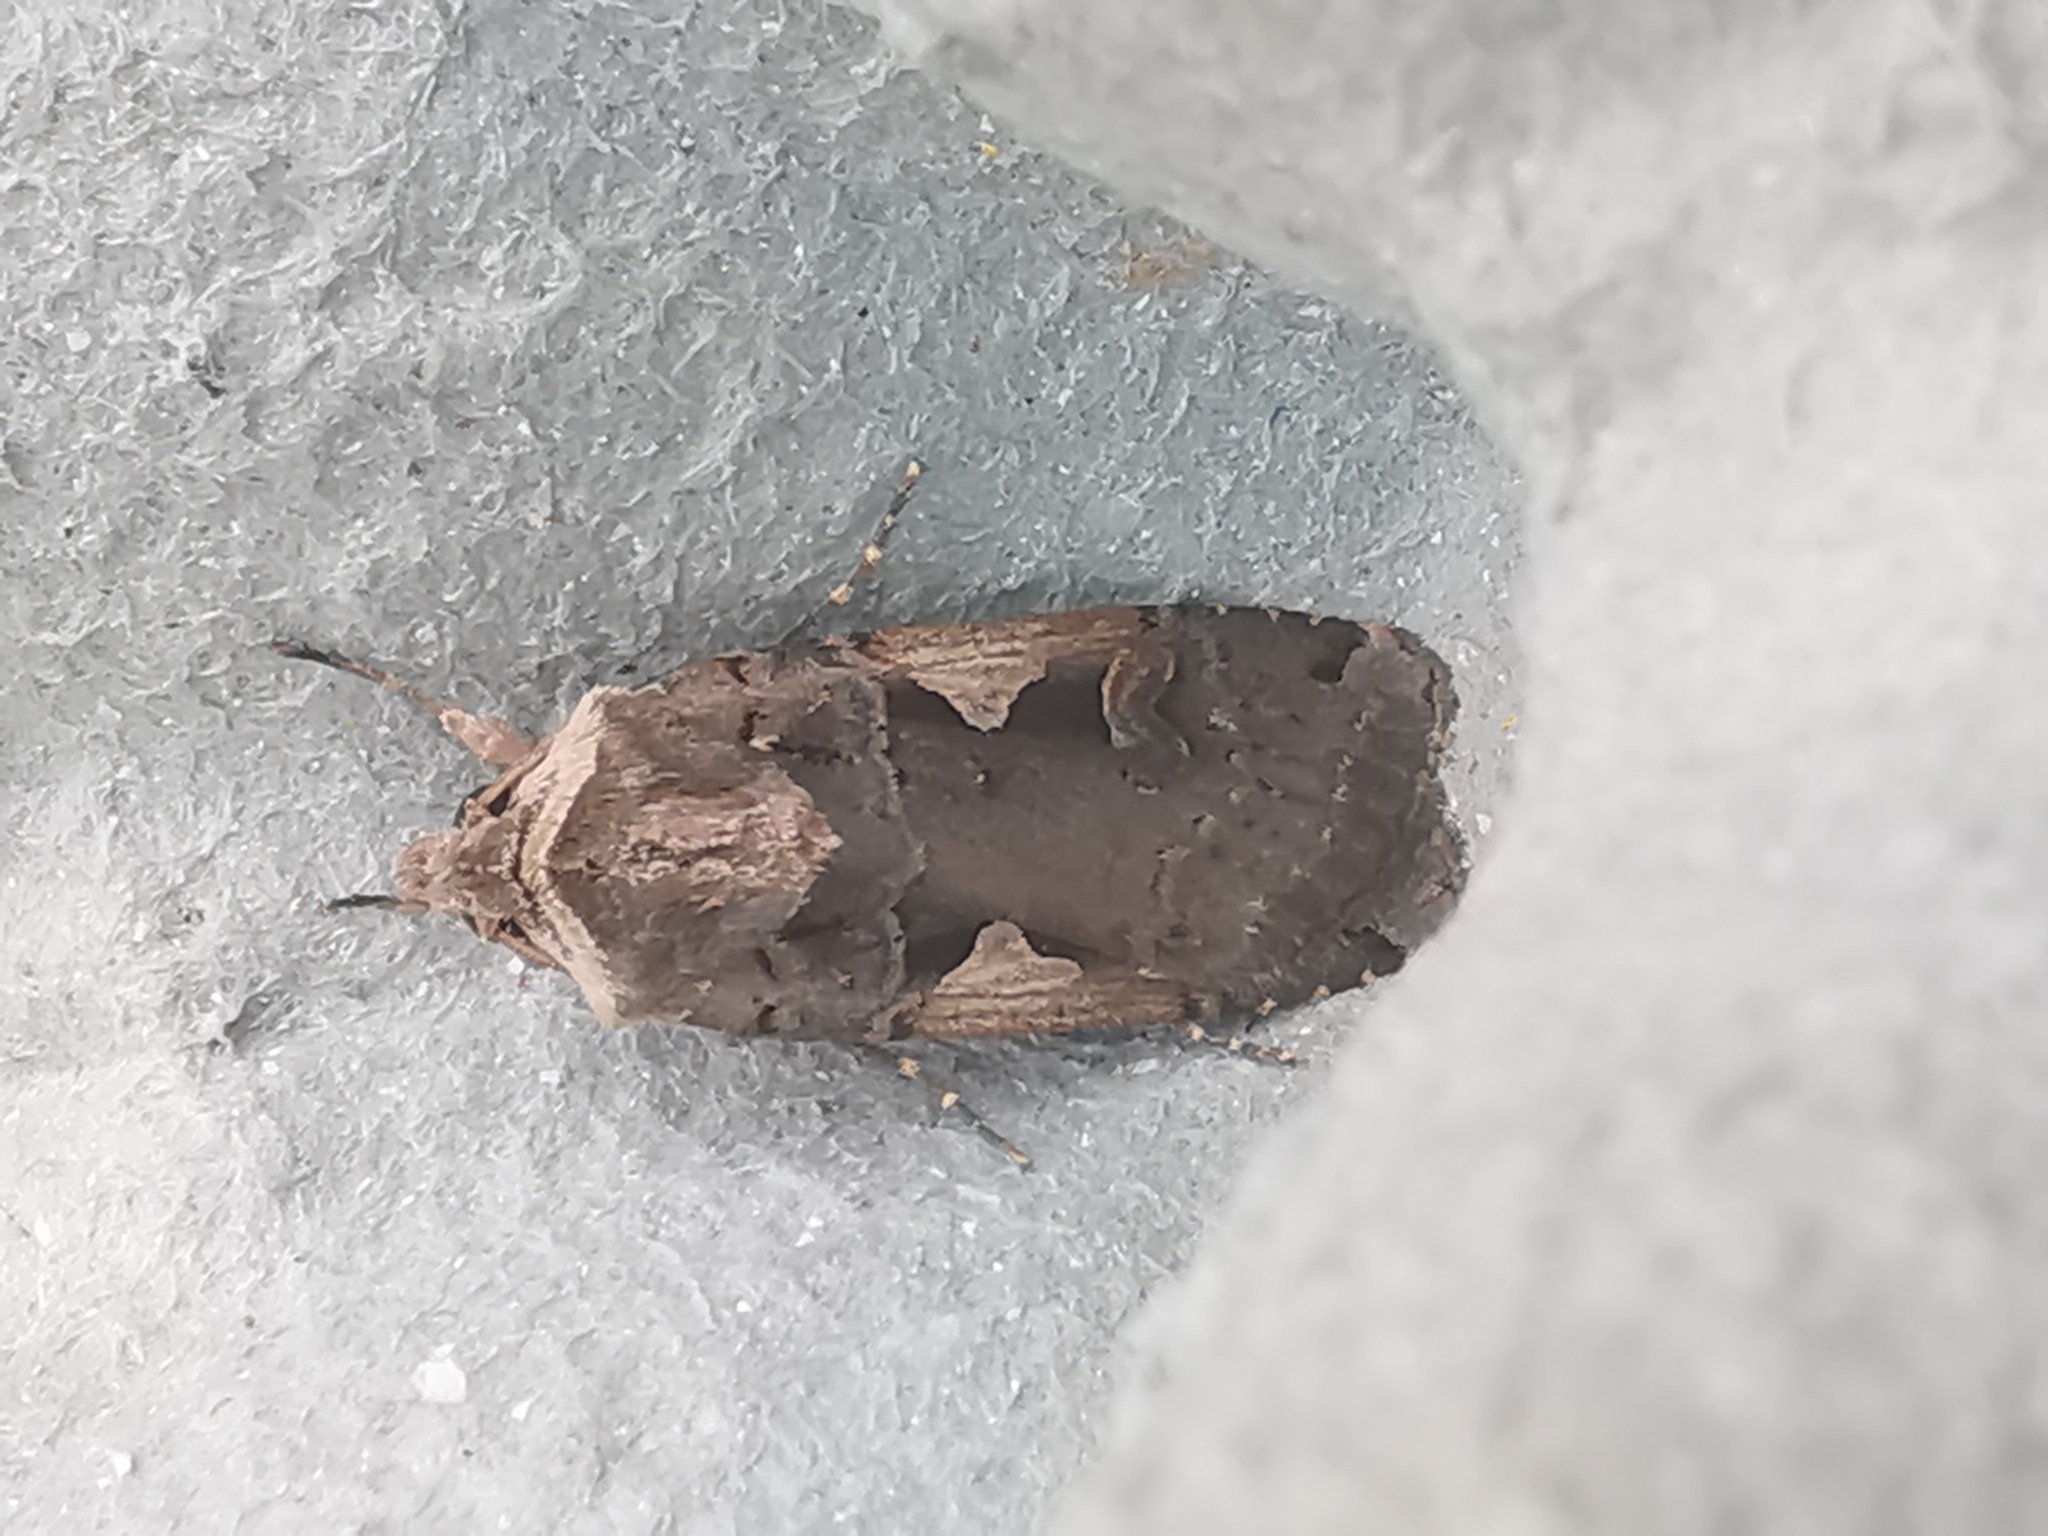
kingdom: Animalia
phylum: Arthropoda
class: Insecta
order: Lepidoptera
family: Noctuidae
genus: Xestia
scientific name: Xestia c-nigrum
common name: Setaceous hebrew character
